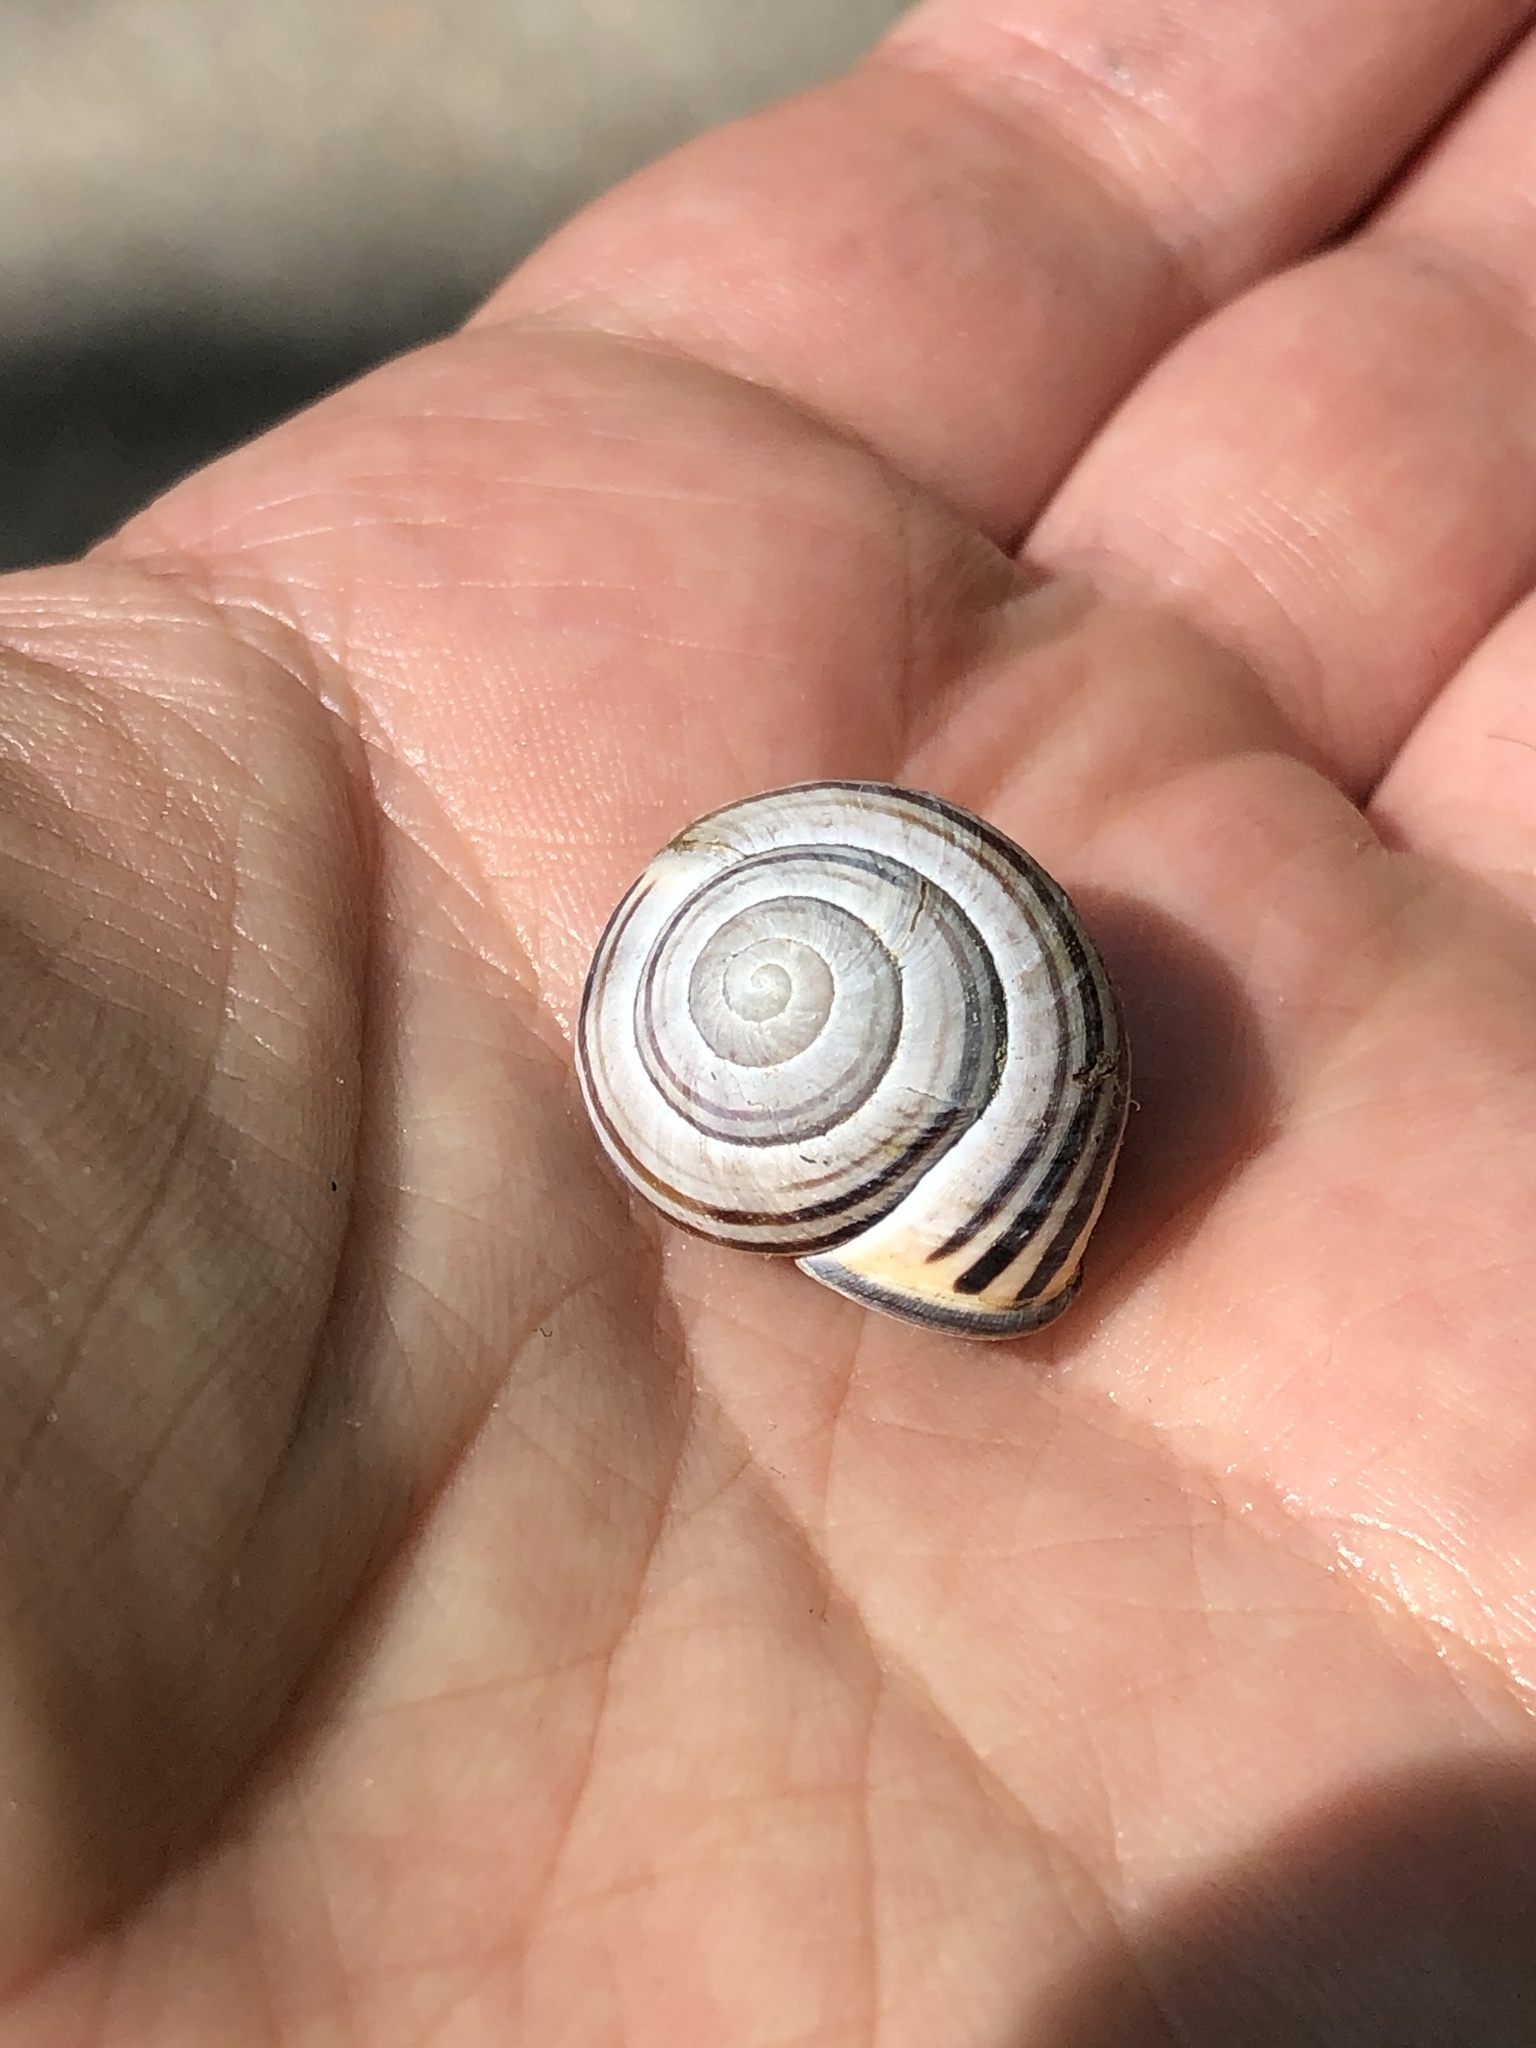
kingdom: Animalia
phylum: Mollusca
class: Gastropoda
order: Stylommatophora
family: Helicidae
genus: Cepaea
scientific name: Cepaea nemoralis
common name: Grovesnail
